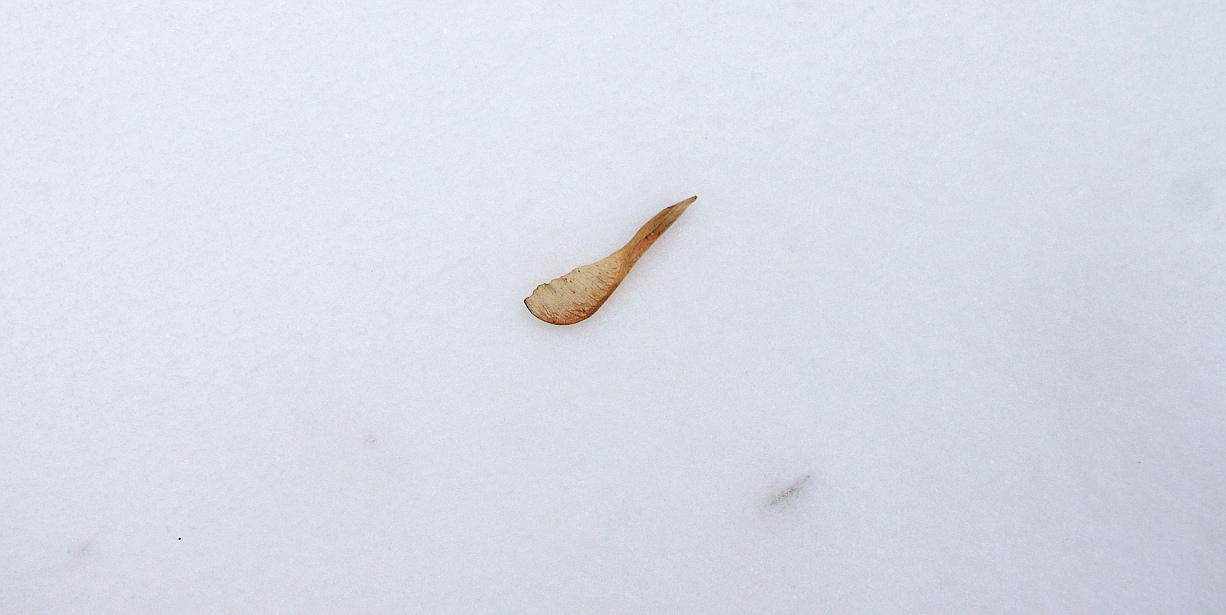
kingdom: Plantae
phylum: Tracheophyta
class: Magnoliopsida
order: Sapindales
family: Sapindaceae
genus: Acer
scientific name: Acer negundo
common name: Ashleaf maple
